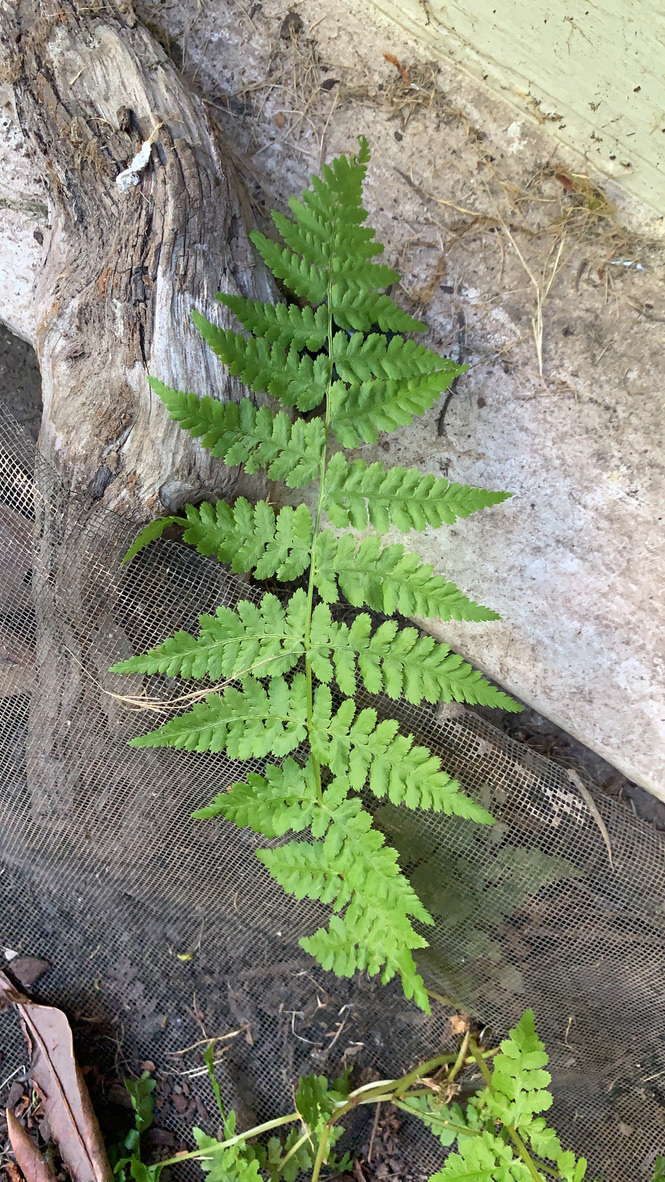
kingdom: Plantae
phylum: Tracheophyta
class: Polypodiopsida
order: Polypodiales
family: Athyriaceae
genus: Athyrium
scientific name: Athyrium cyclosorum
